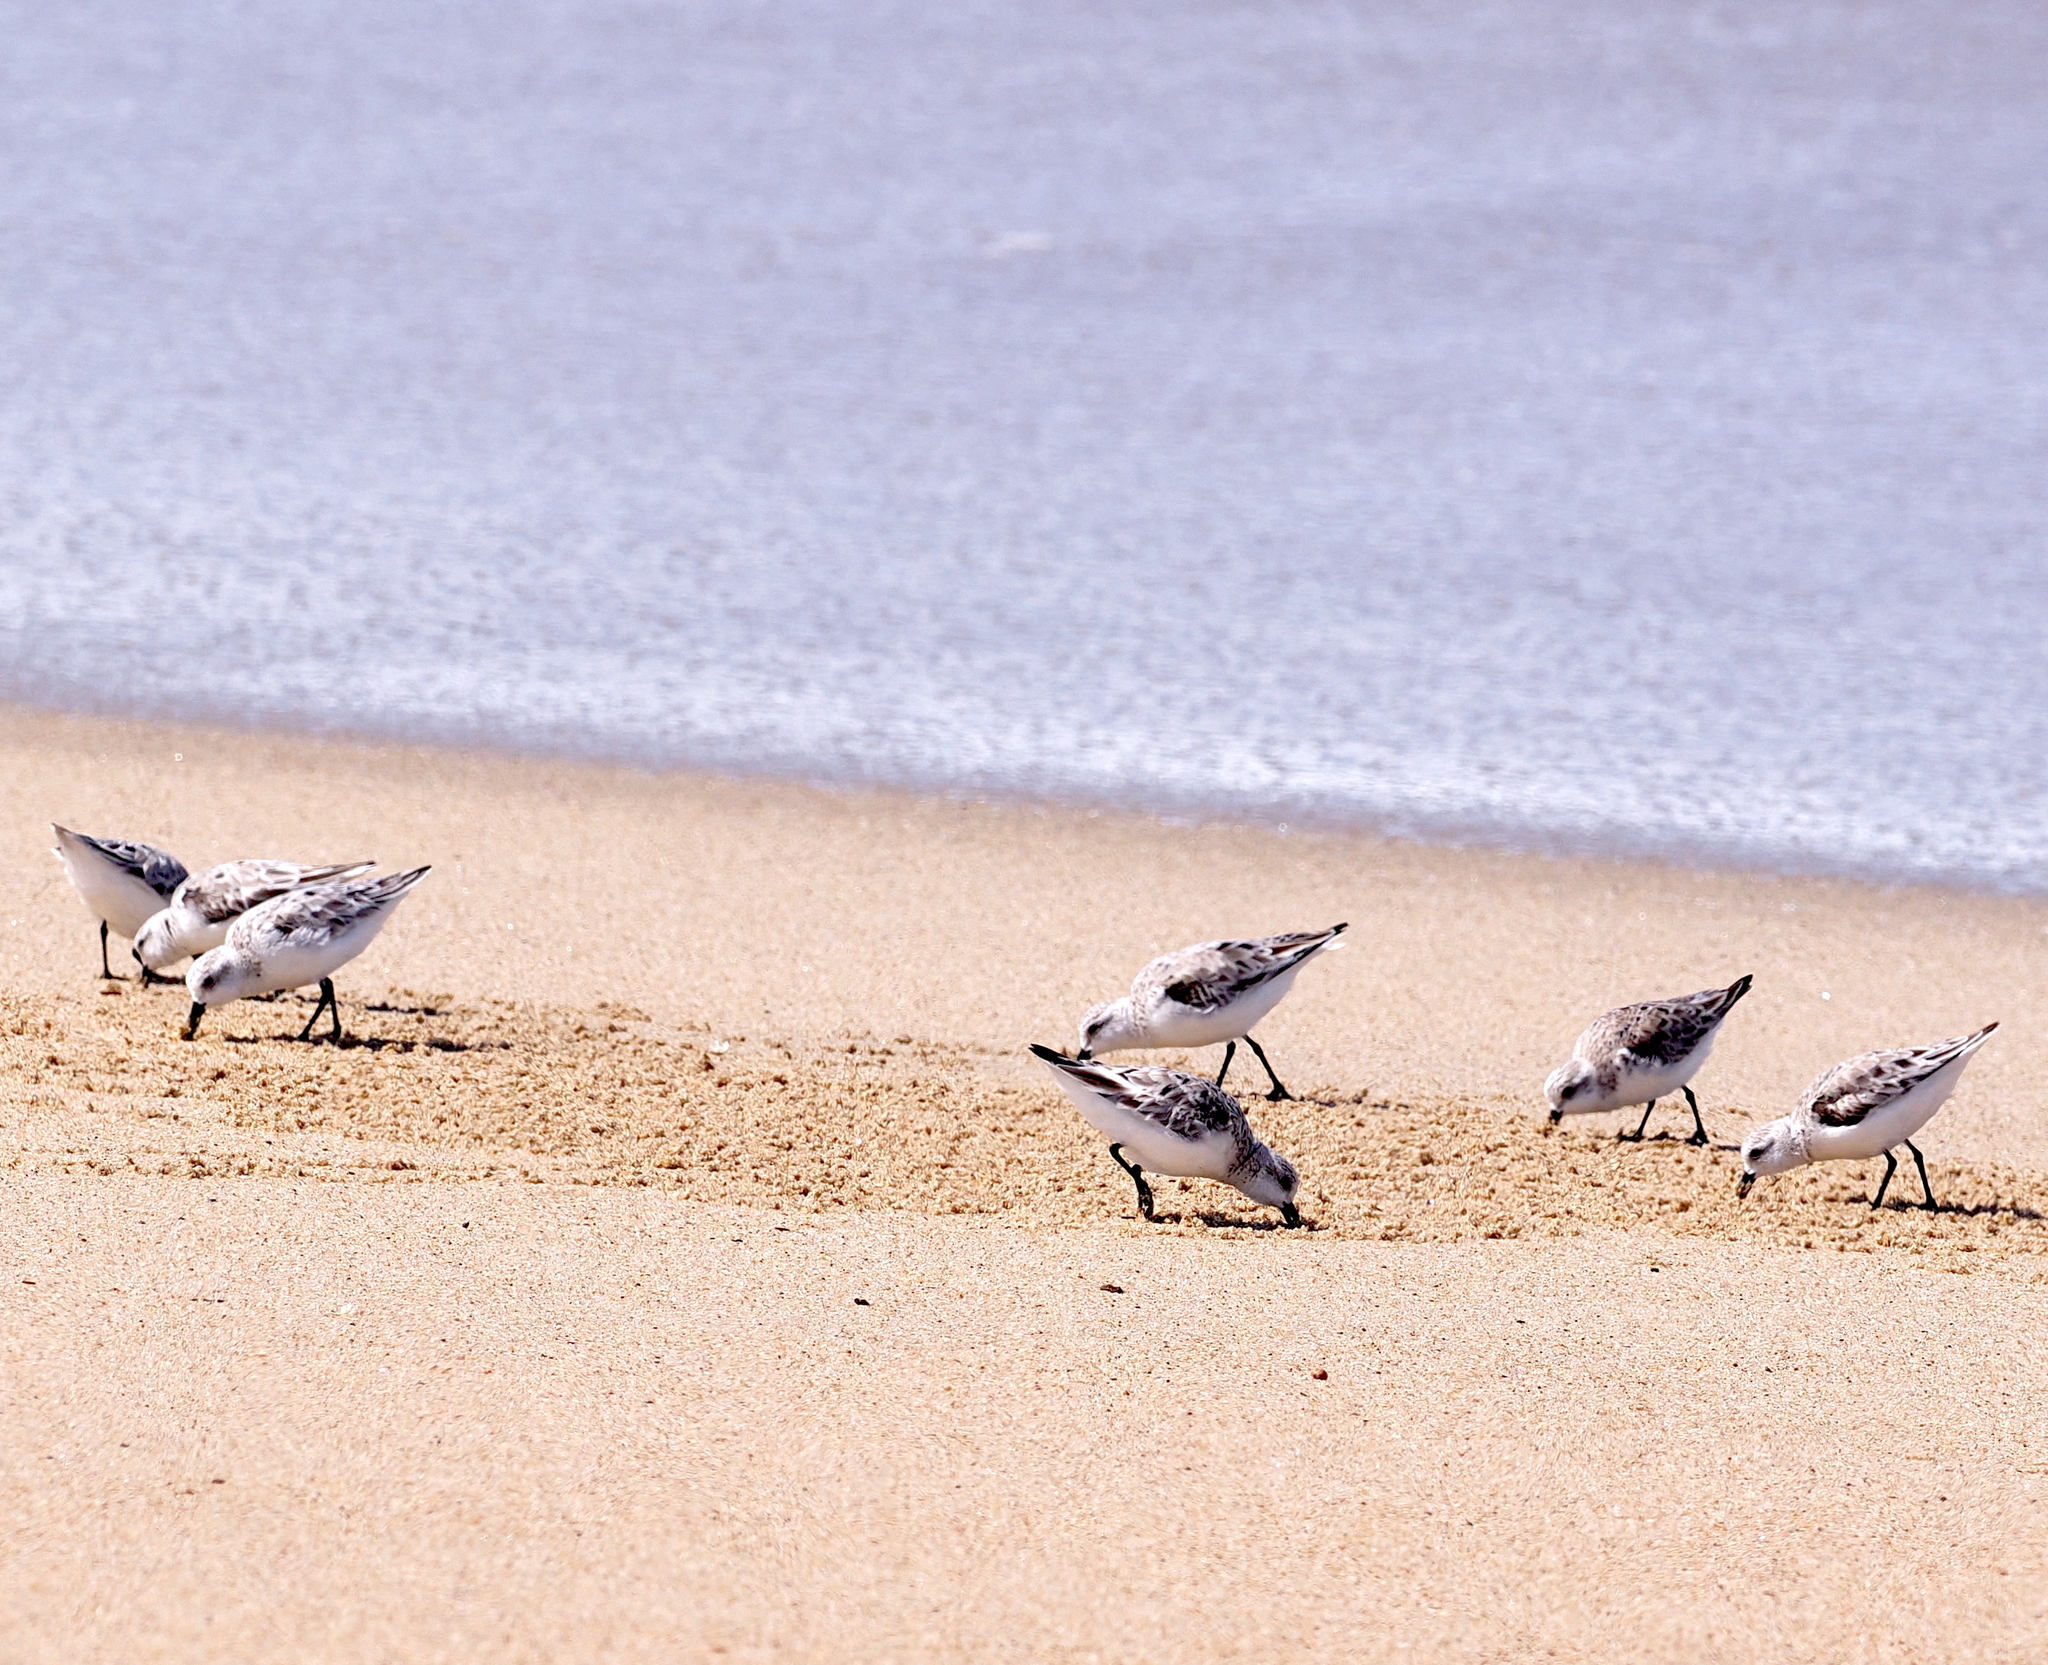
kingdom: Animalia
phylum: Chordata
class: Aves
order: Charadriiformes
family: Scolopacidae
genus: Calidris
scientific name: Calidris alba
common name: Sanderling
